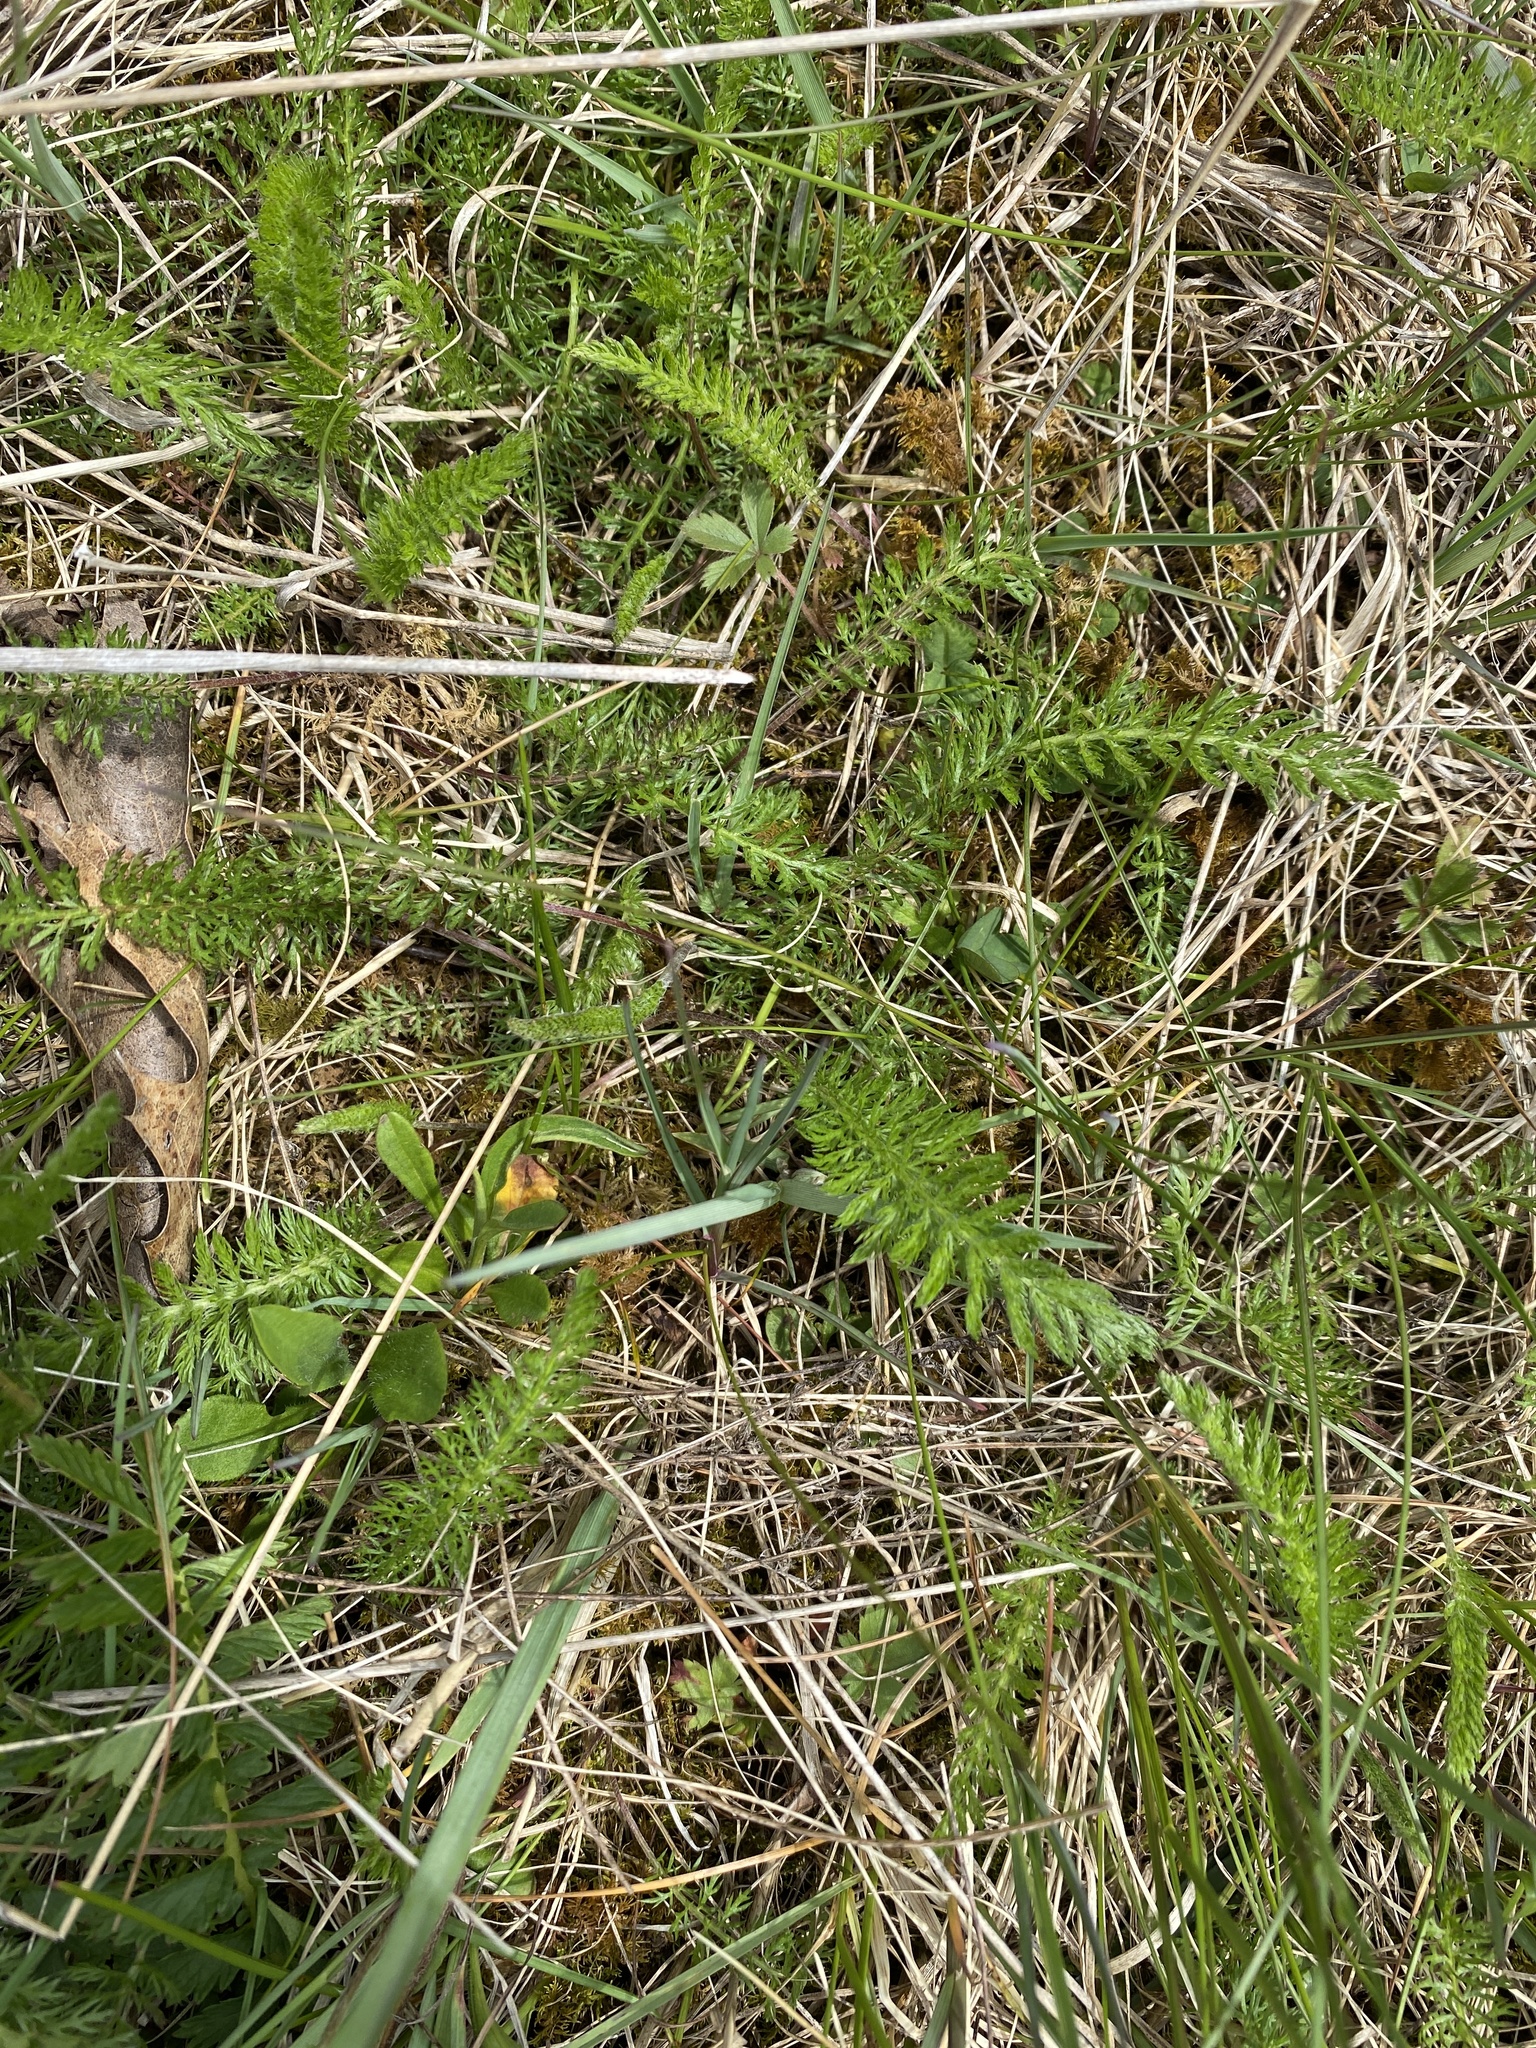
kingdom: Plantae
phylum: Tracheophyta
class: Magnoliopsida
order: Asterales
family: Asteraceae
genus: Achillea
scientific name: Achillea millefolium
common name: Yarrow
